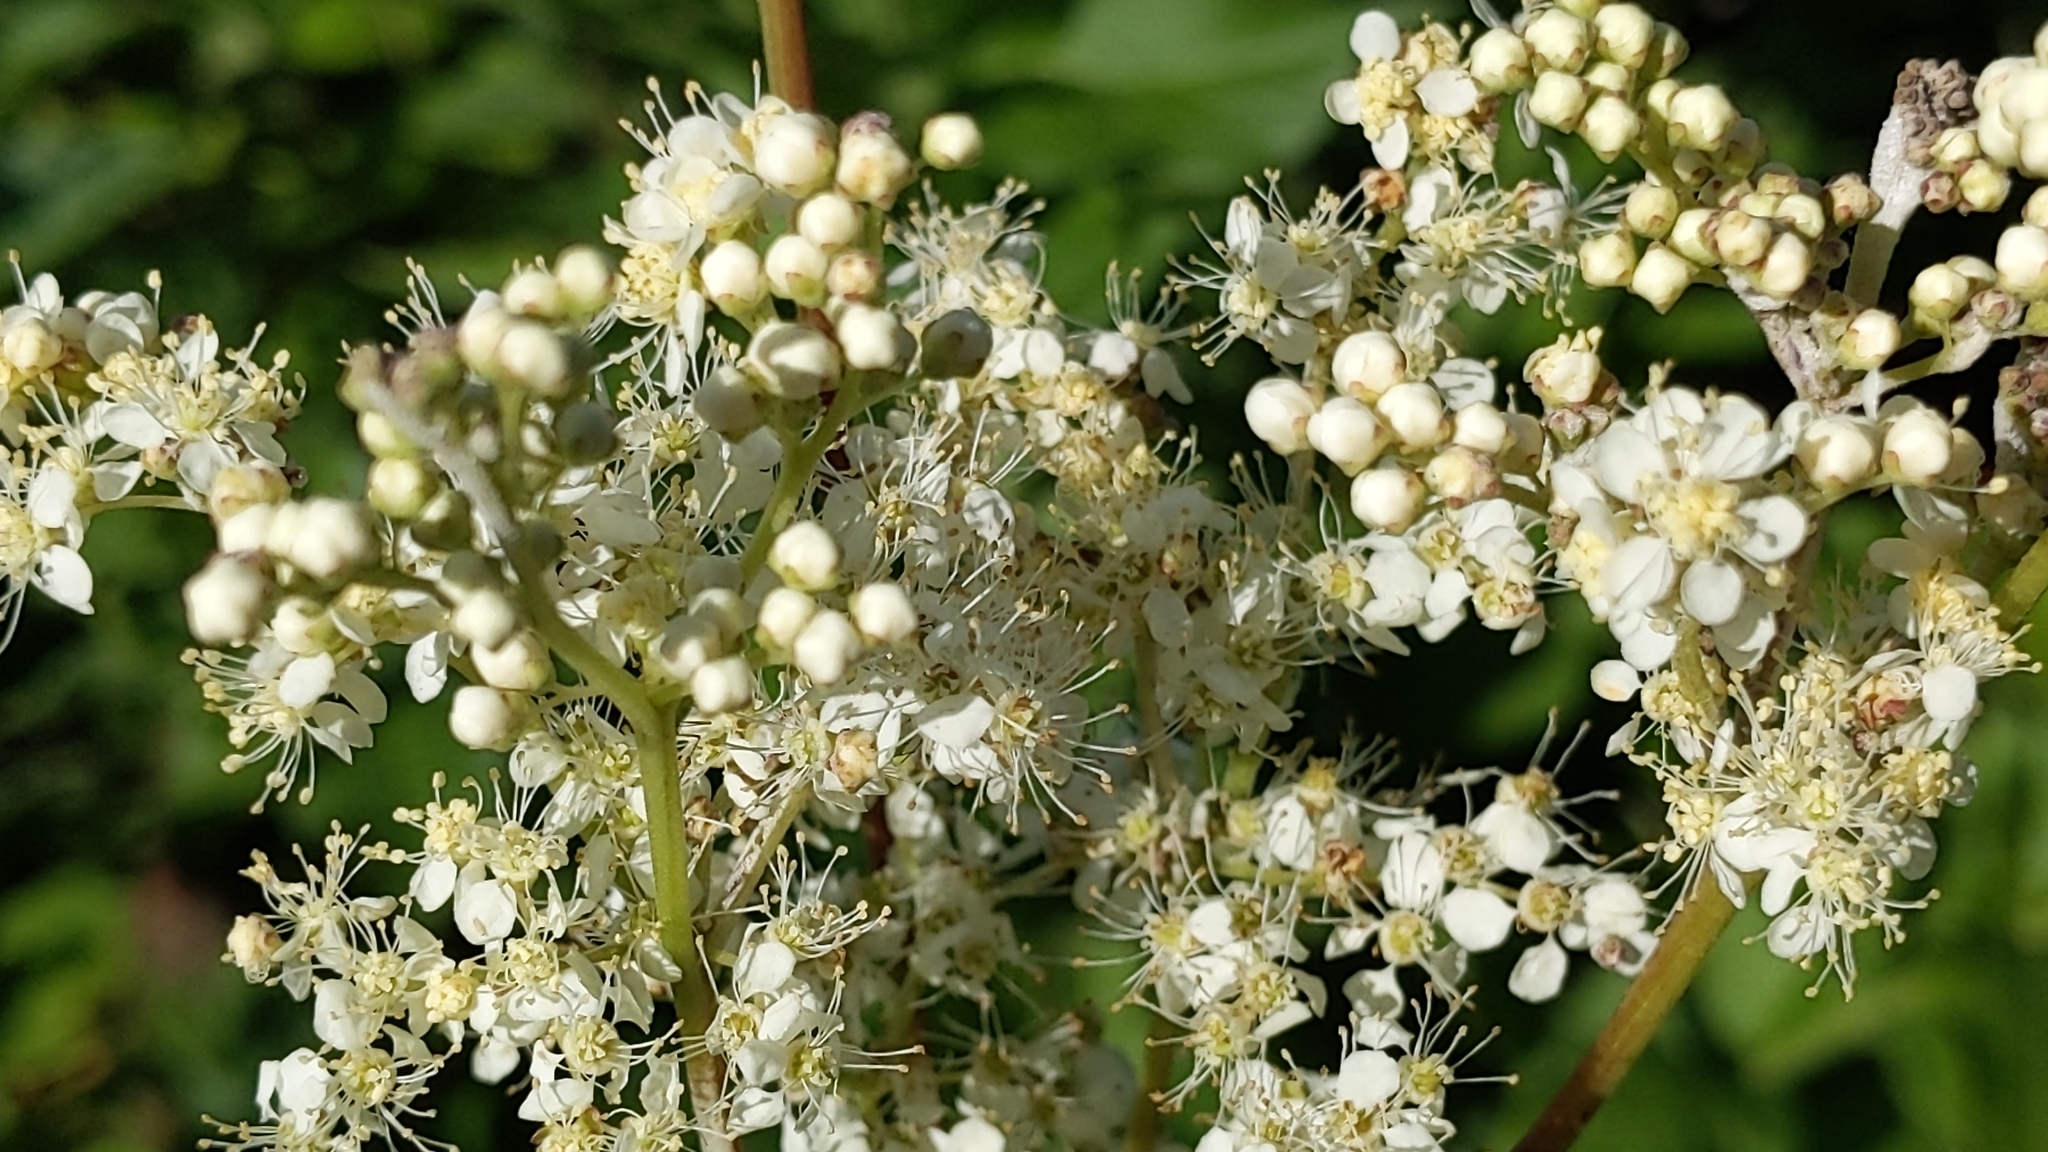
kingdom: Plantae
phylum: Tracheophyta
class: Magnoliopsida
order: Rosales
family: Rosaceae
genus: Filipendula
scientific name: Filipendula ulmaria
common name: Meadowsweet
